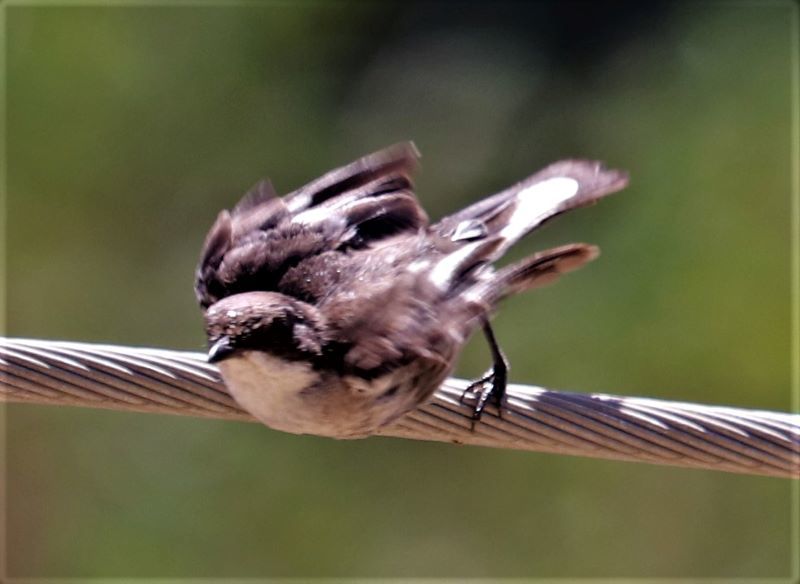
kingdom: Animalia
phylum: Chordata
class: Aves
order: Passeriformes
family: Muscicapidae
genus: Sigelus
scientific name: Sigelus silens
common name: Fiscal flycatcher
